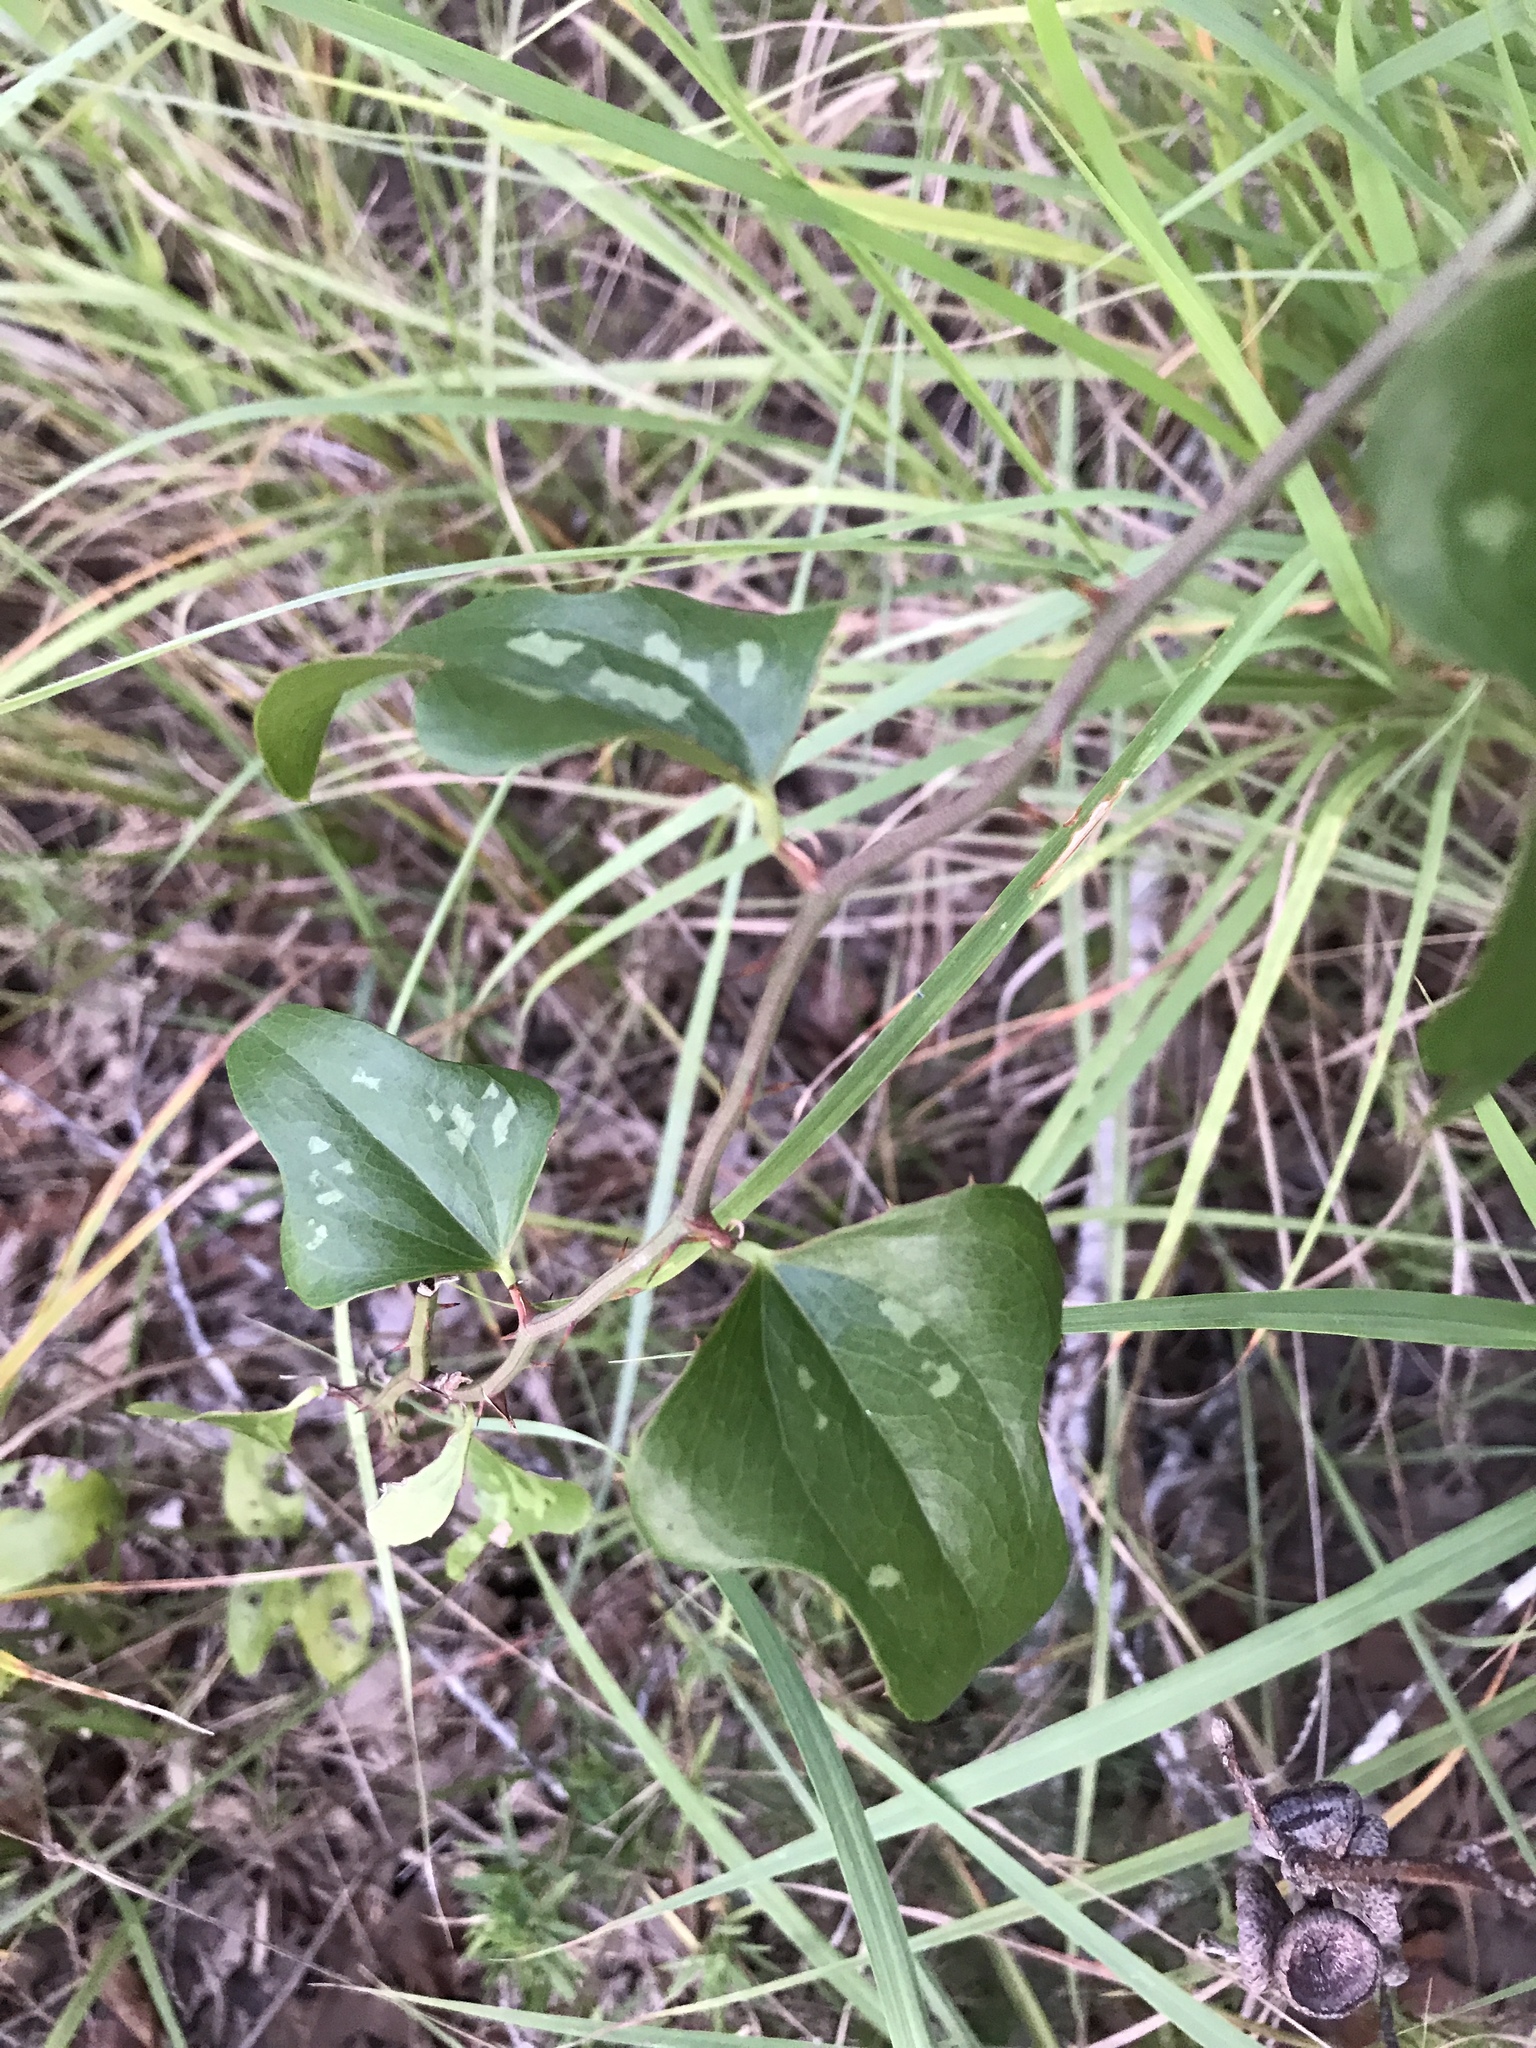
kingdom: Plantae
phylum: Tracheophyta
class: Liliopsida
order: Liliales
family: Smilacaceae
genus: Smilax
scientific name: Smilax bona-nox
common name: Catbrier
